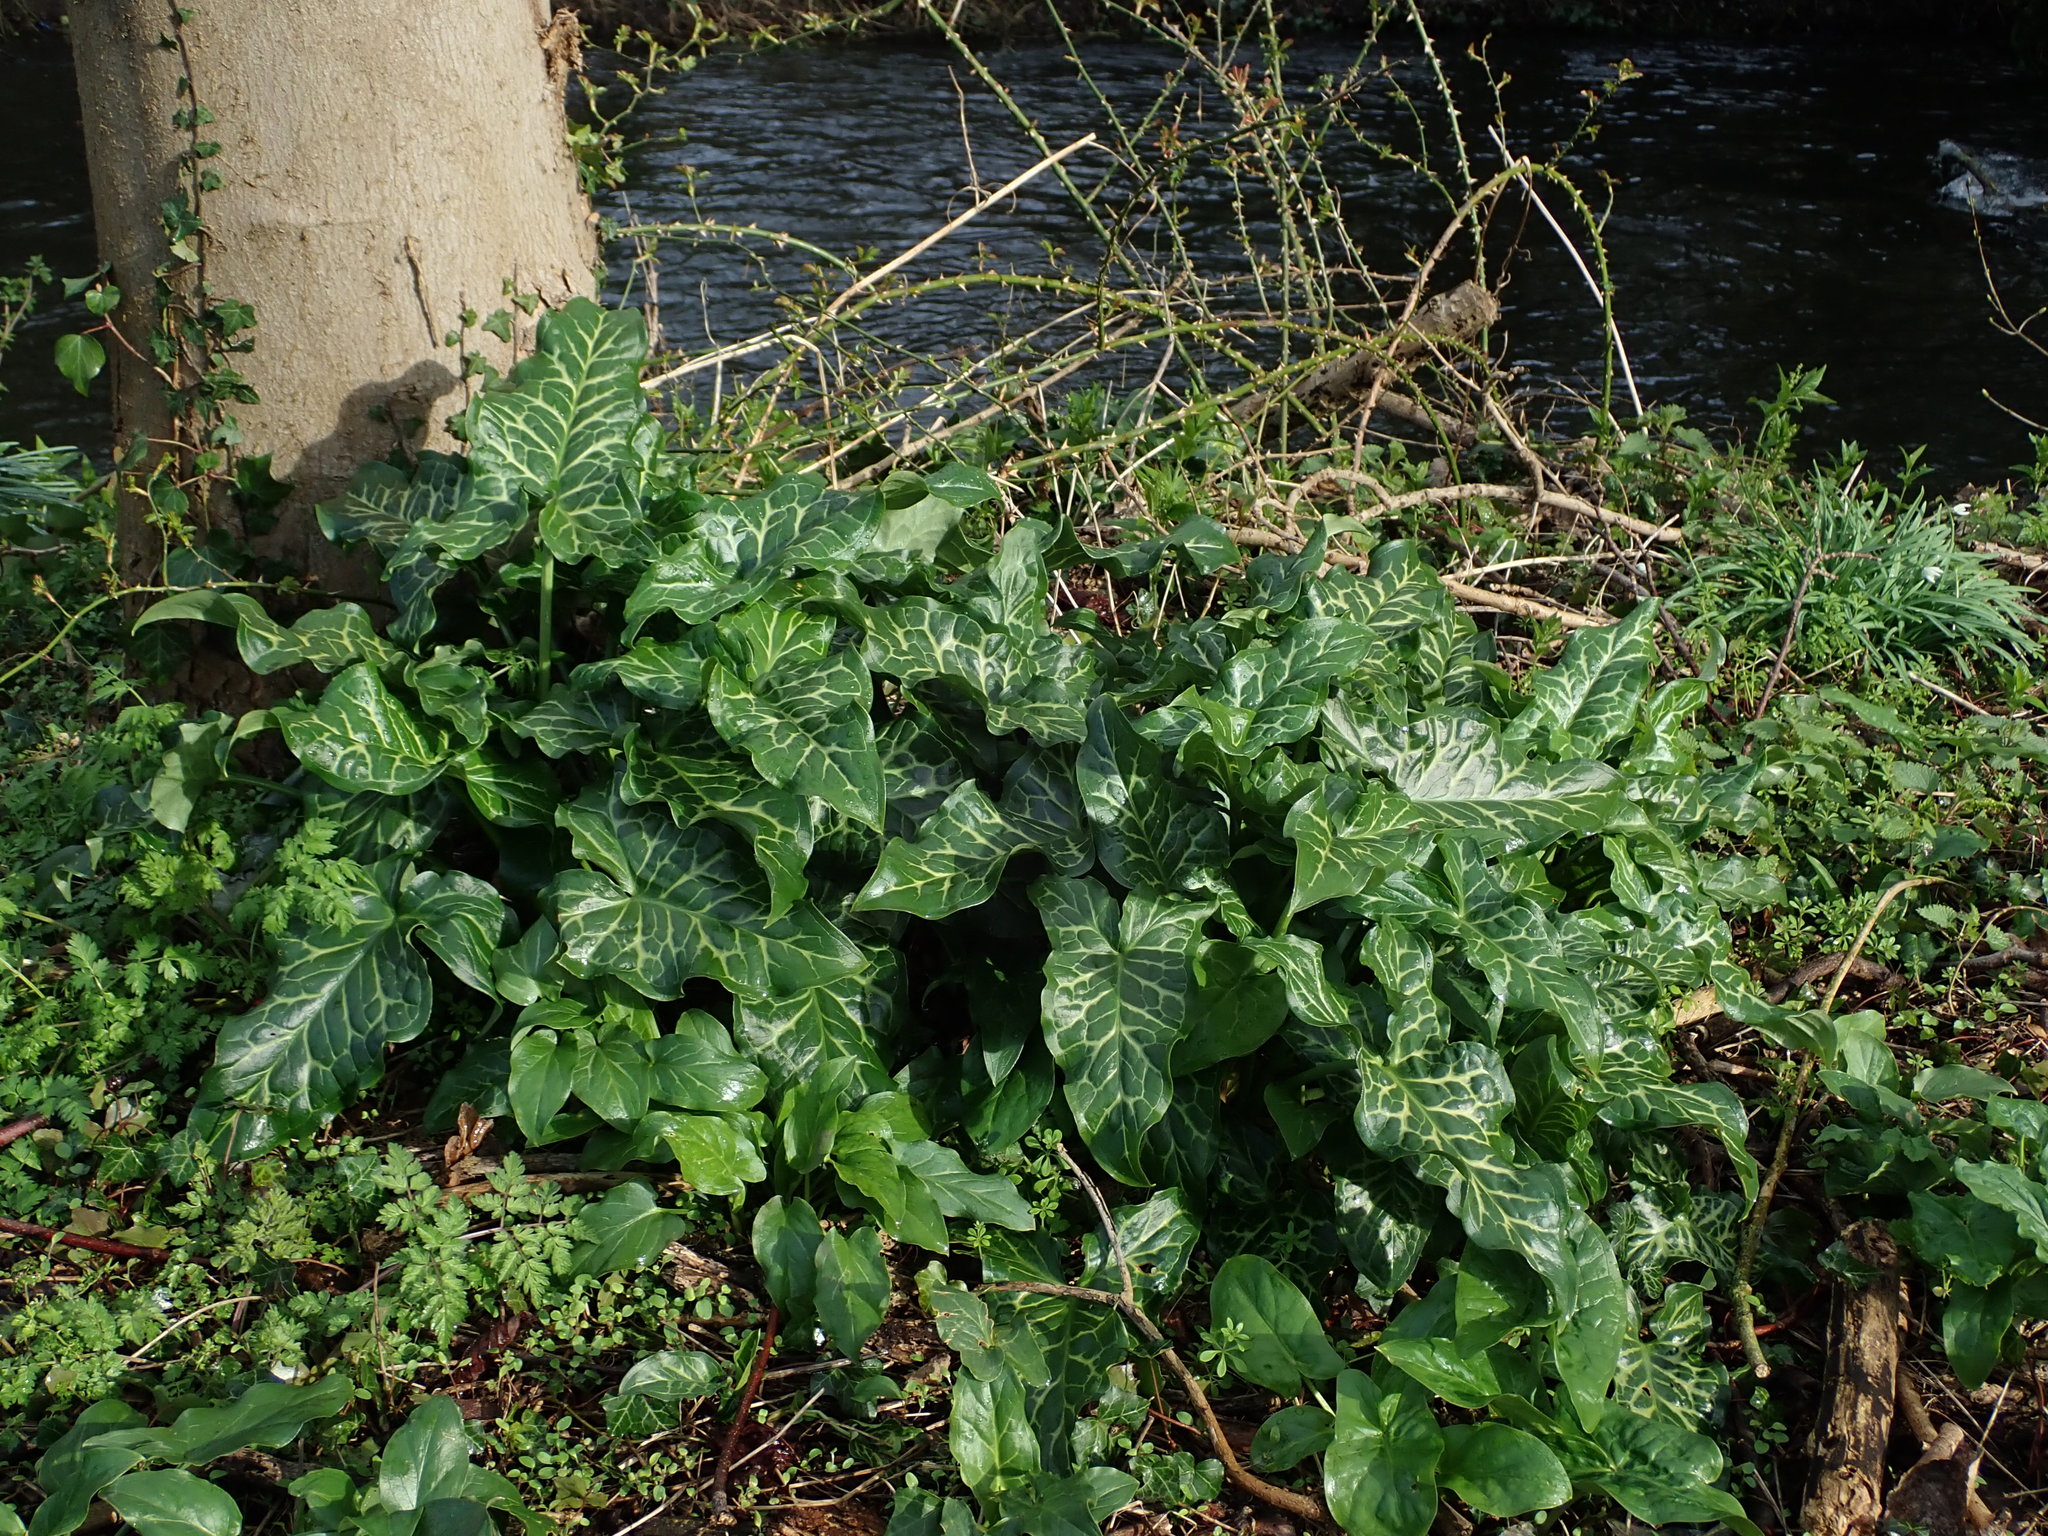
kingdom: Plantae
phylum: Tracheophyta
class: Liliopsida
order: Alismatales
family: Araceae
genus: Arum
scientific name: Arum italicum
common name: Italian lords-and-ladies
